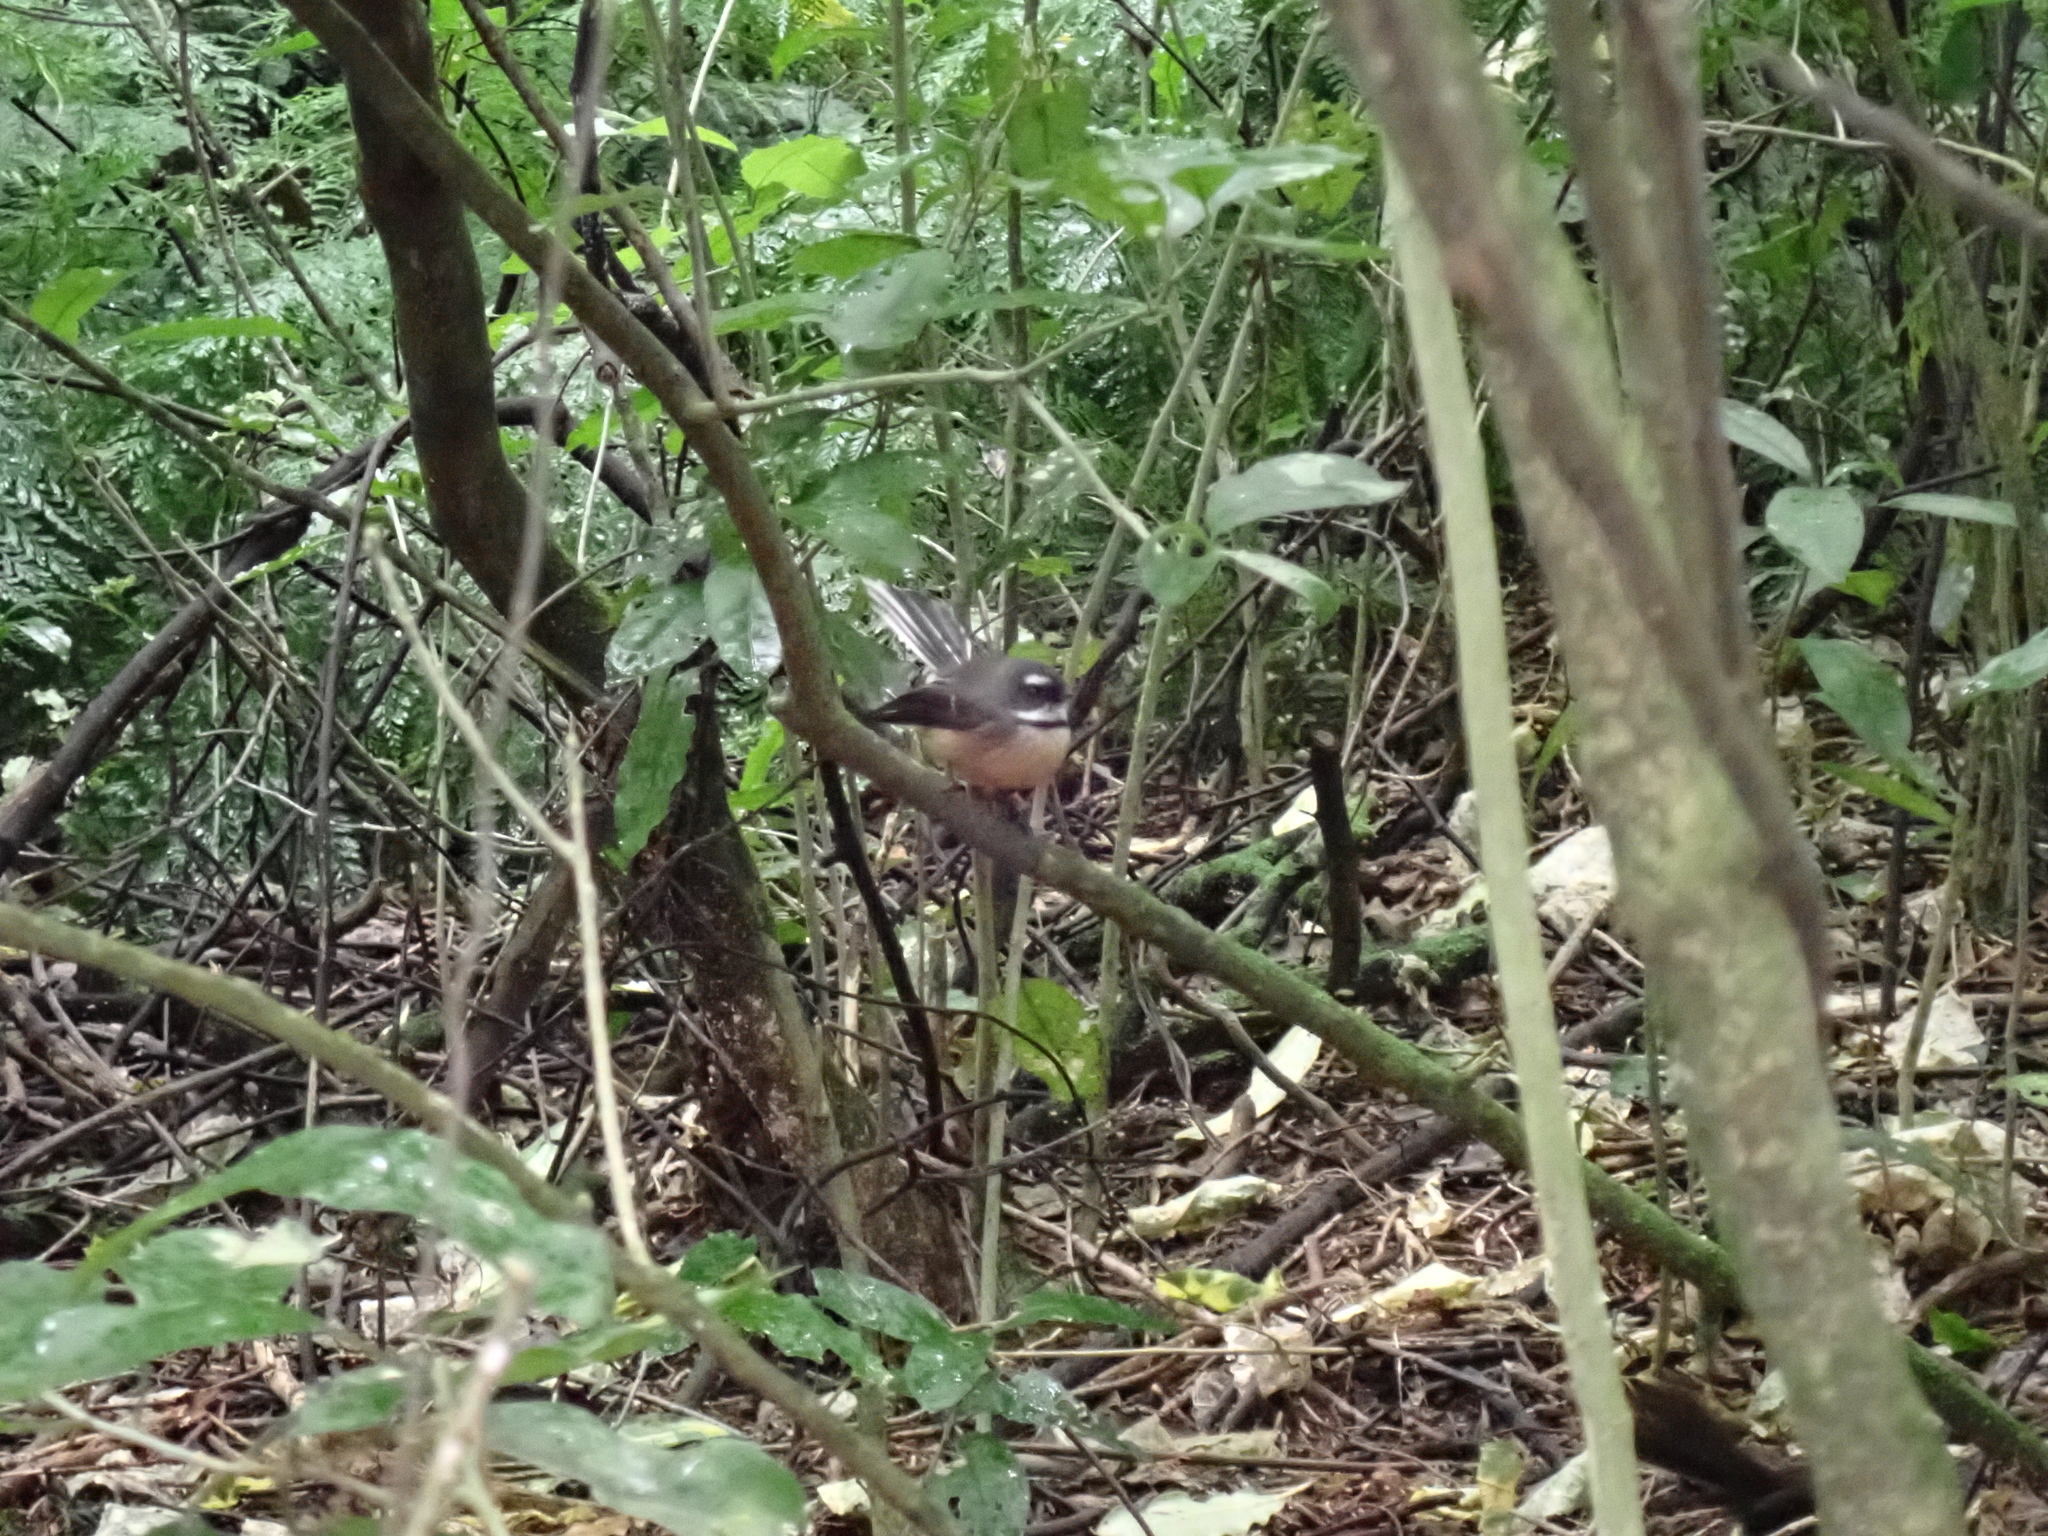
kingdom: Animalia
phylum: Chordata
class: Aves
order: Passeriformes
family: Rhipiduridae
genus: Rhipidura
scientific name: Rhipidura fuliginosa
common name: New zealand fantail
